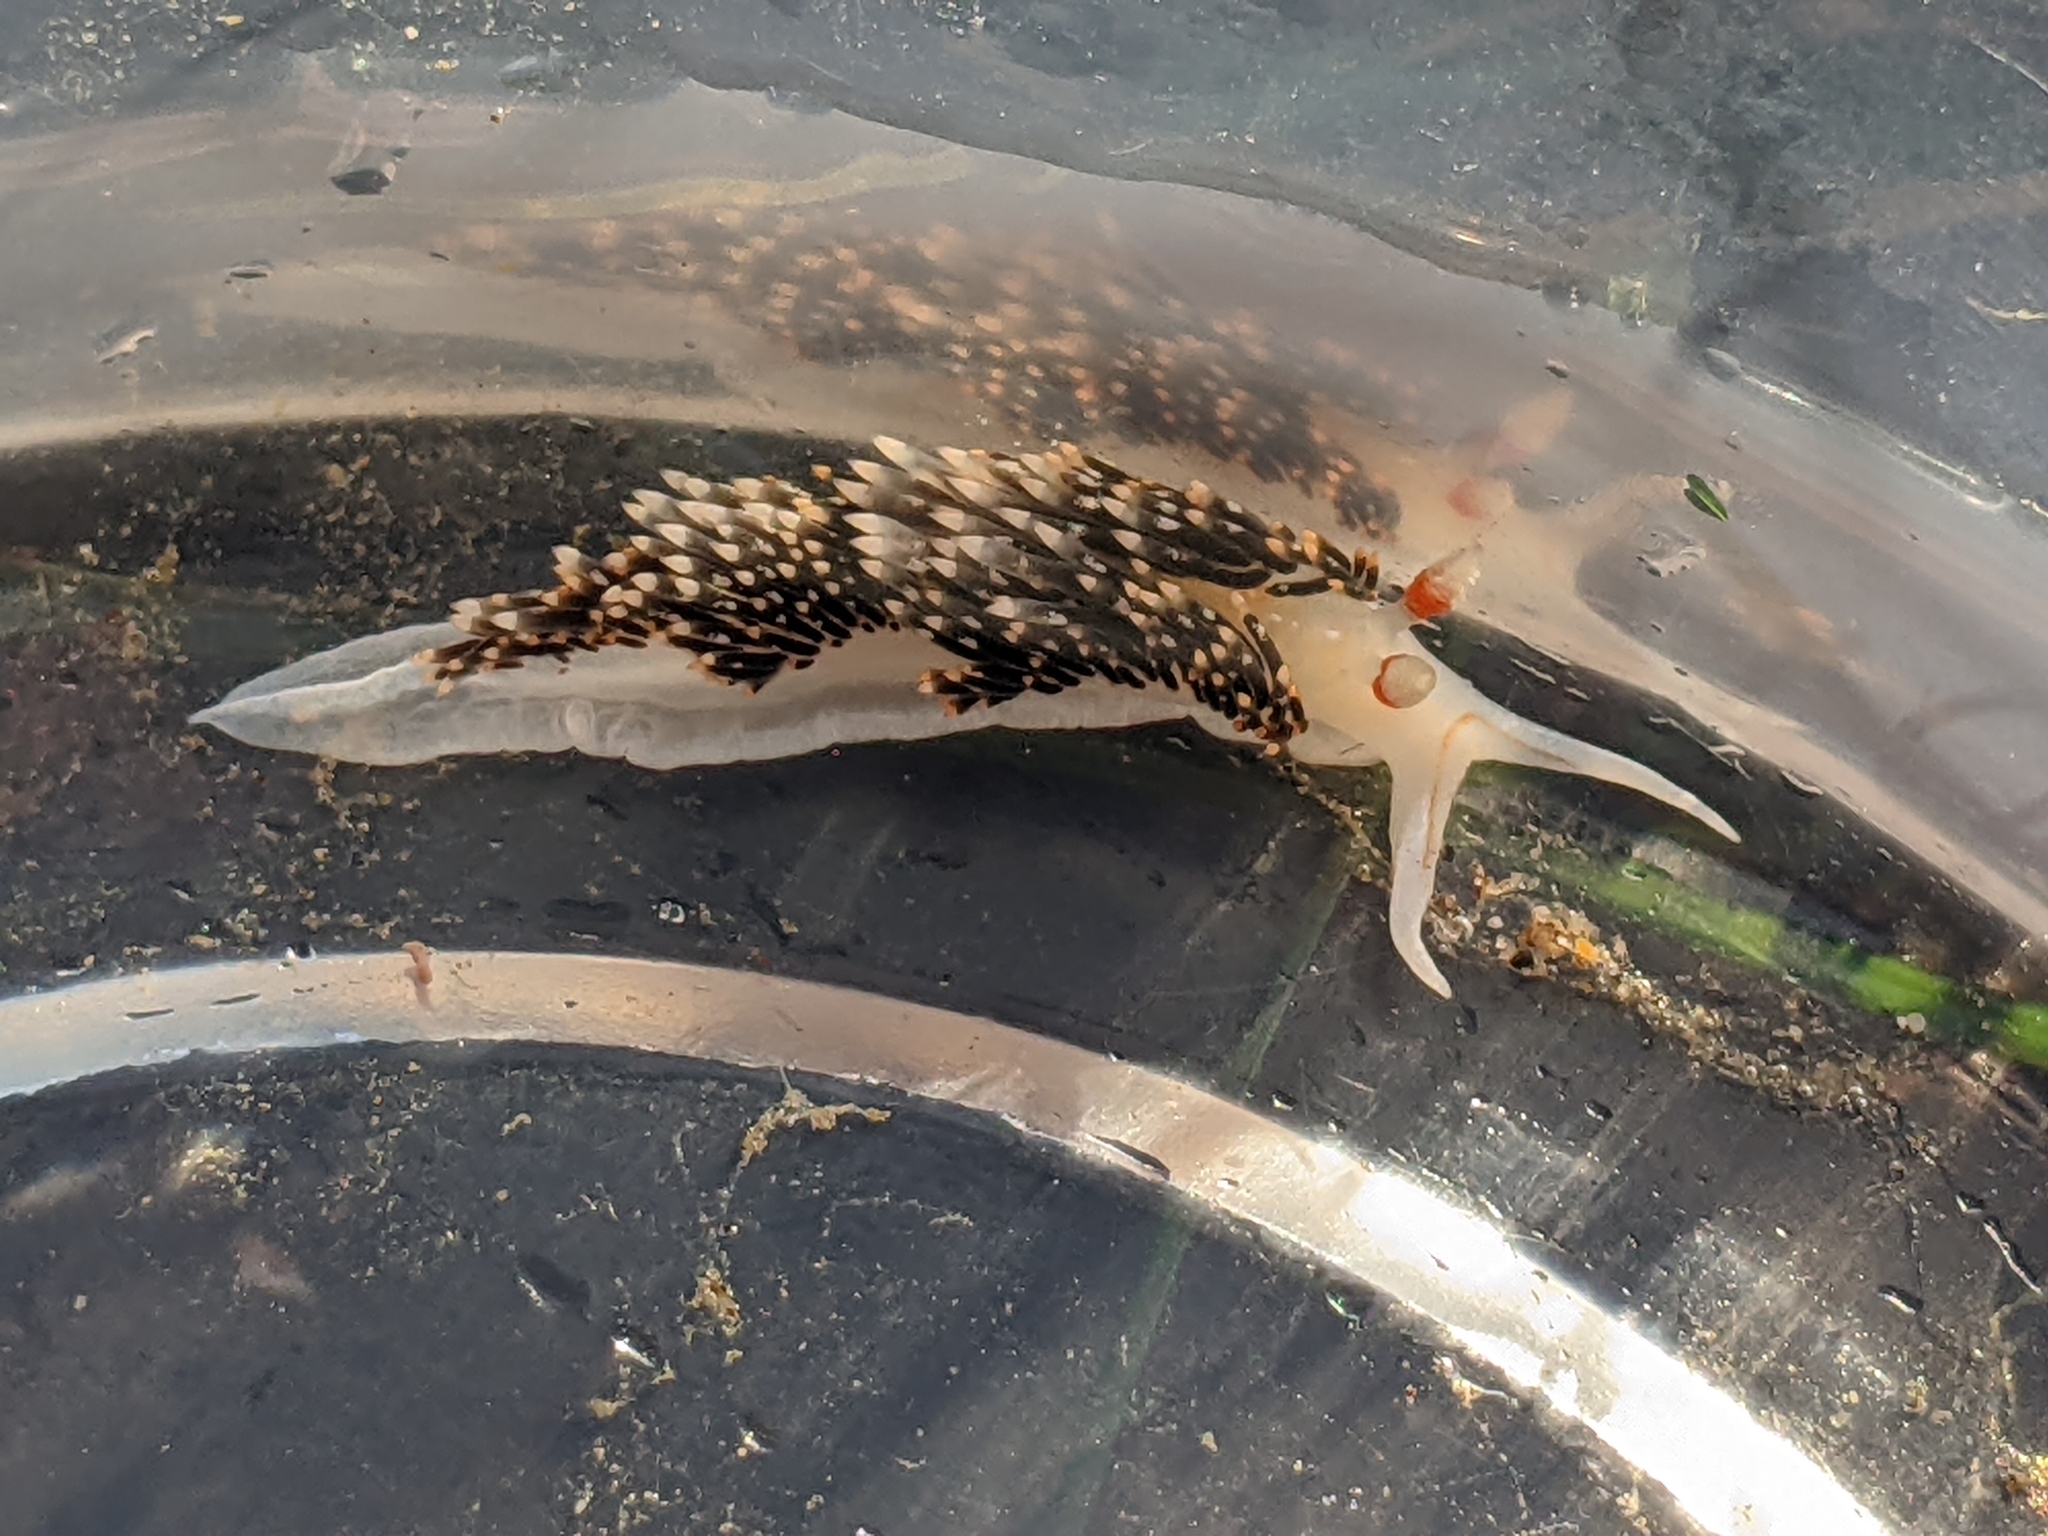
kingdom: Animalia
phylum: Mollusca
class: Gastropoda
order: Nudibranchia
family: Facelinidae
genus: Phidiana
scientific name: Phidiana hiltoni
